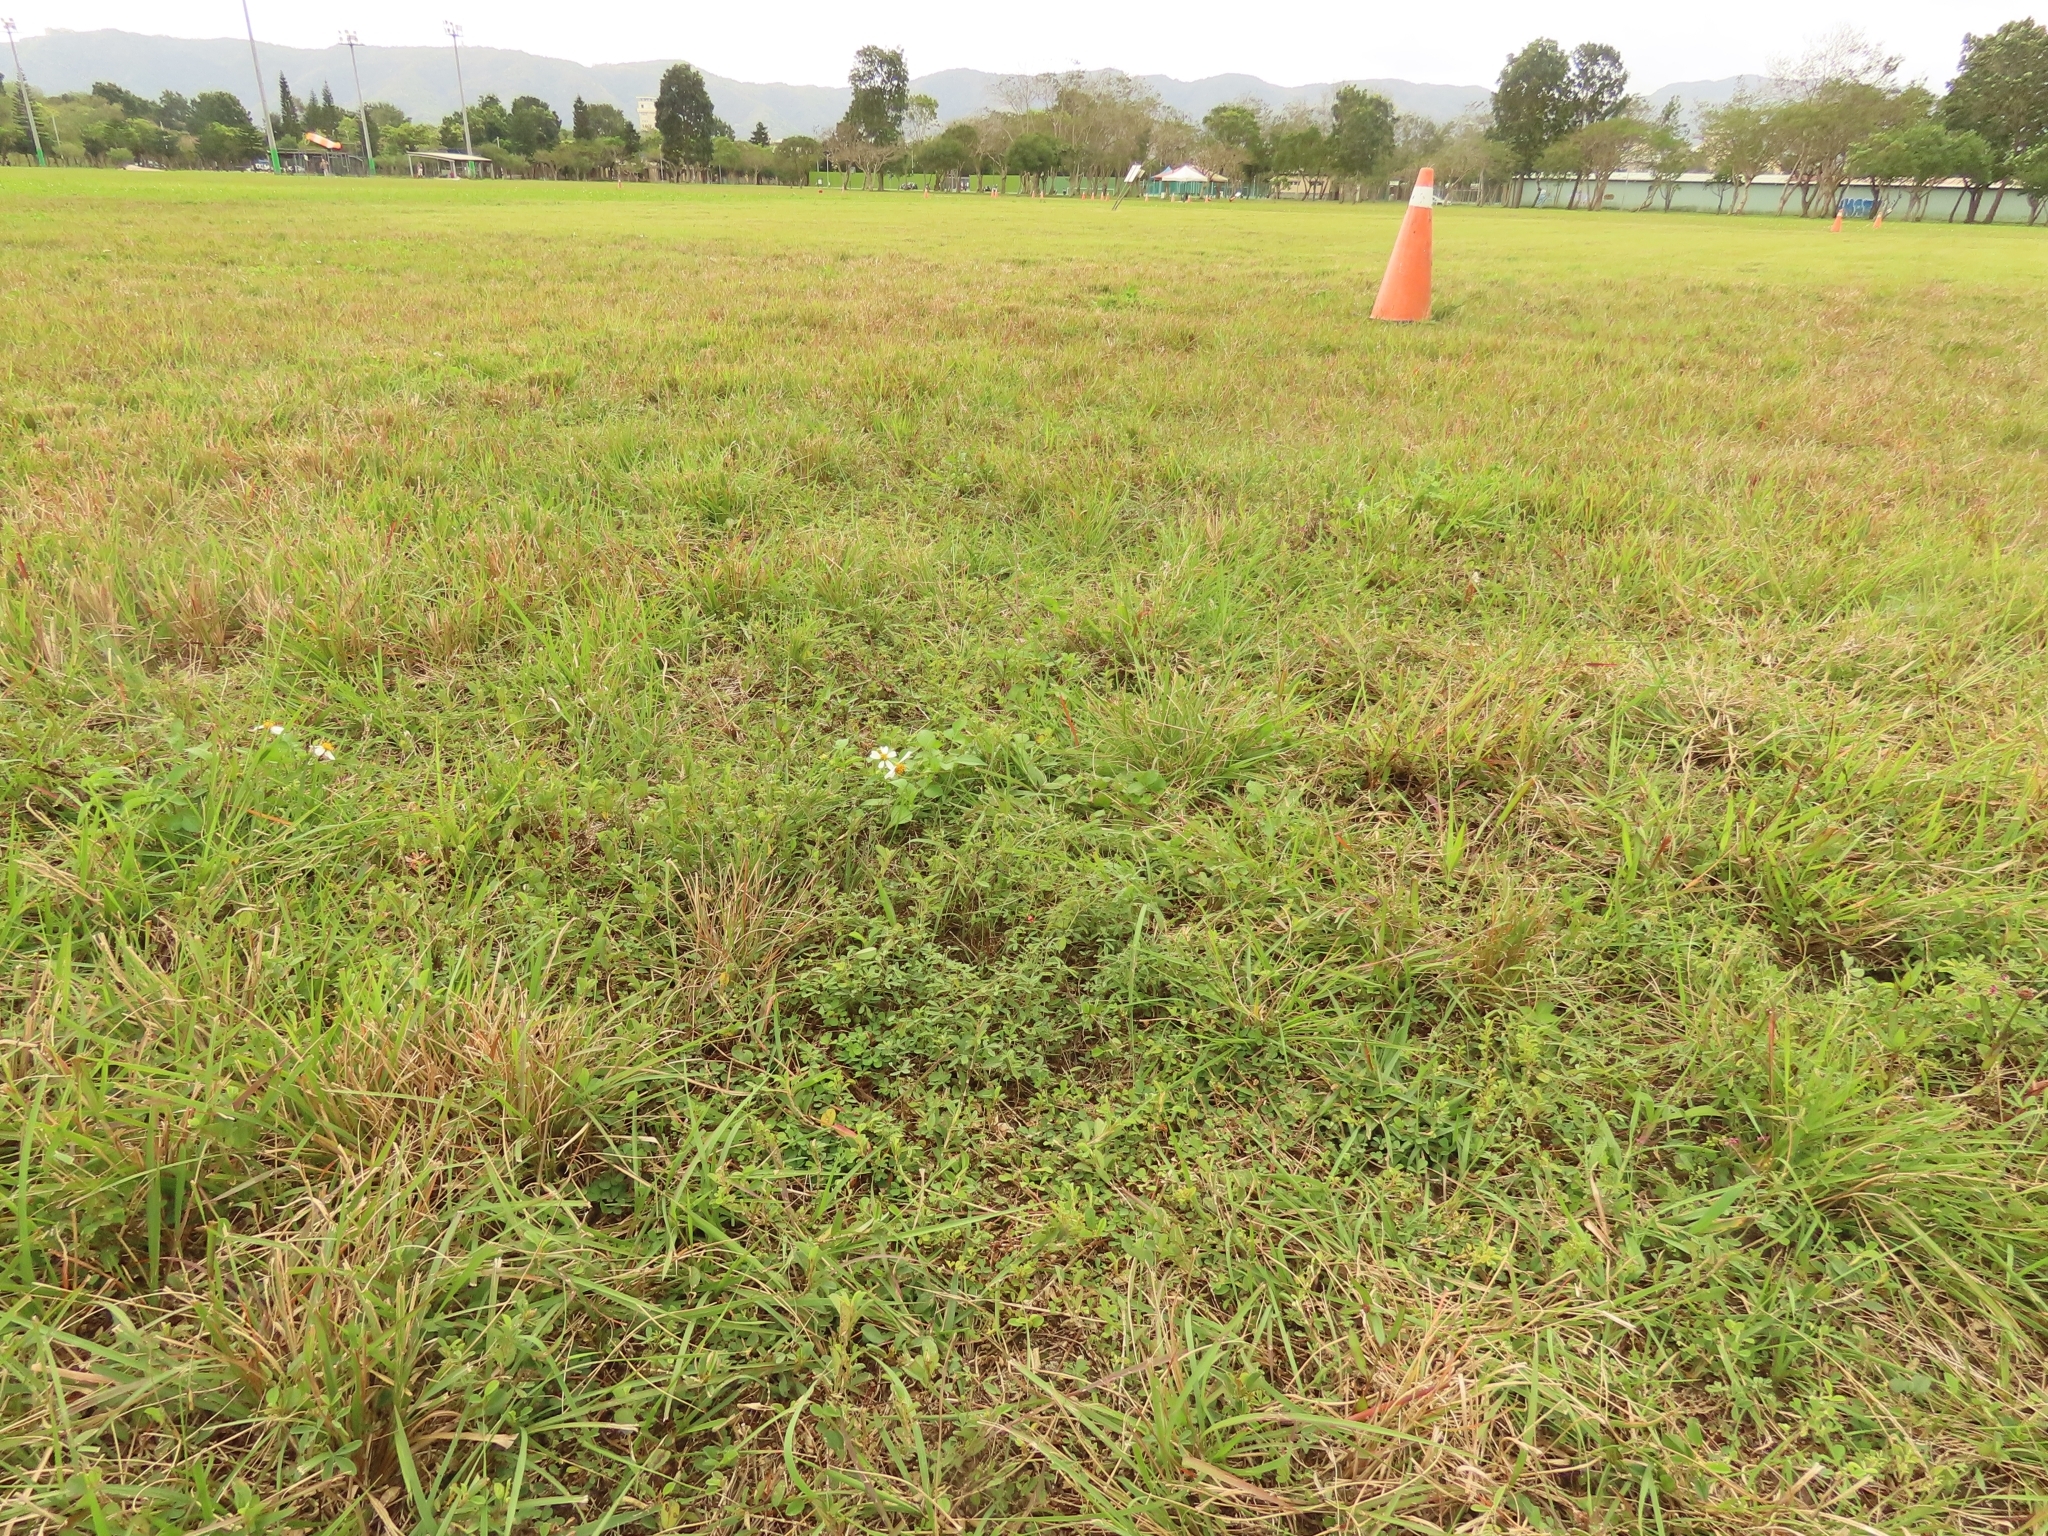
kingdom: Plantae
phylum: Tracheophyta
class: Magnoliopsida
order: Fabales
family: Fabaceae
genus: Indigofera
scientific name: Indigofera trifoliata
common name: Threeleaf indigo
